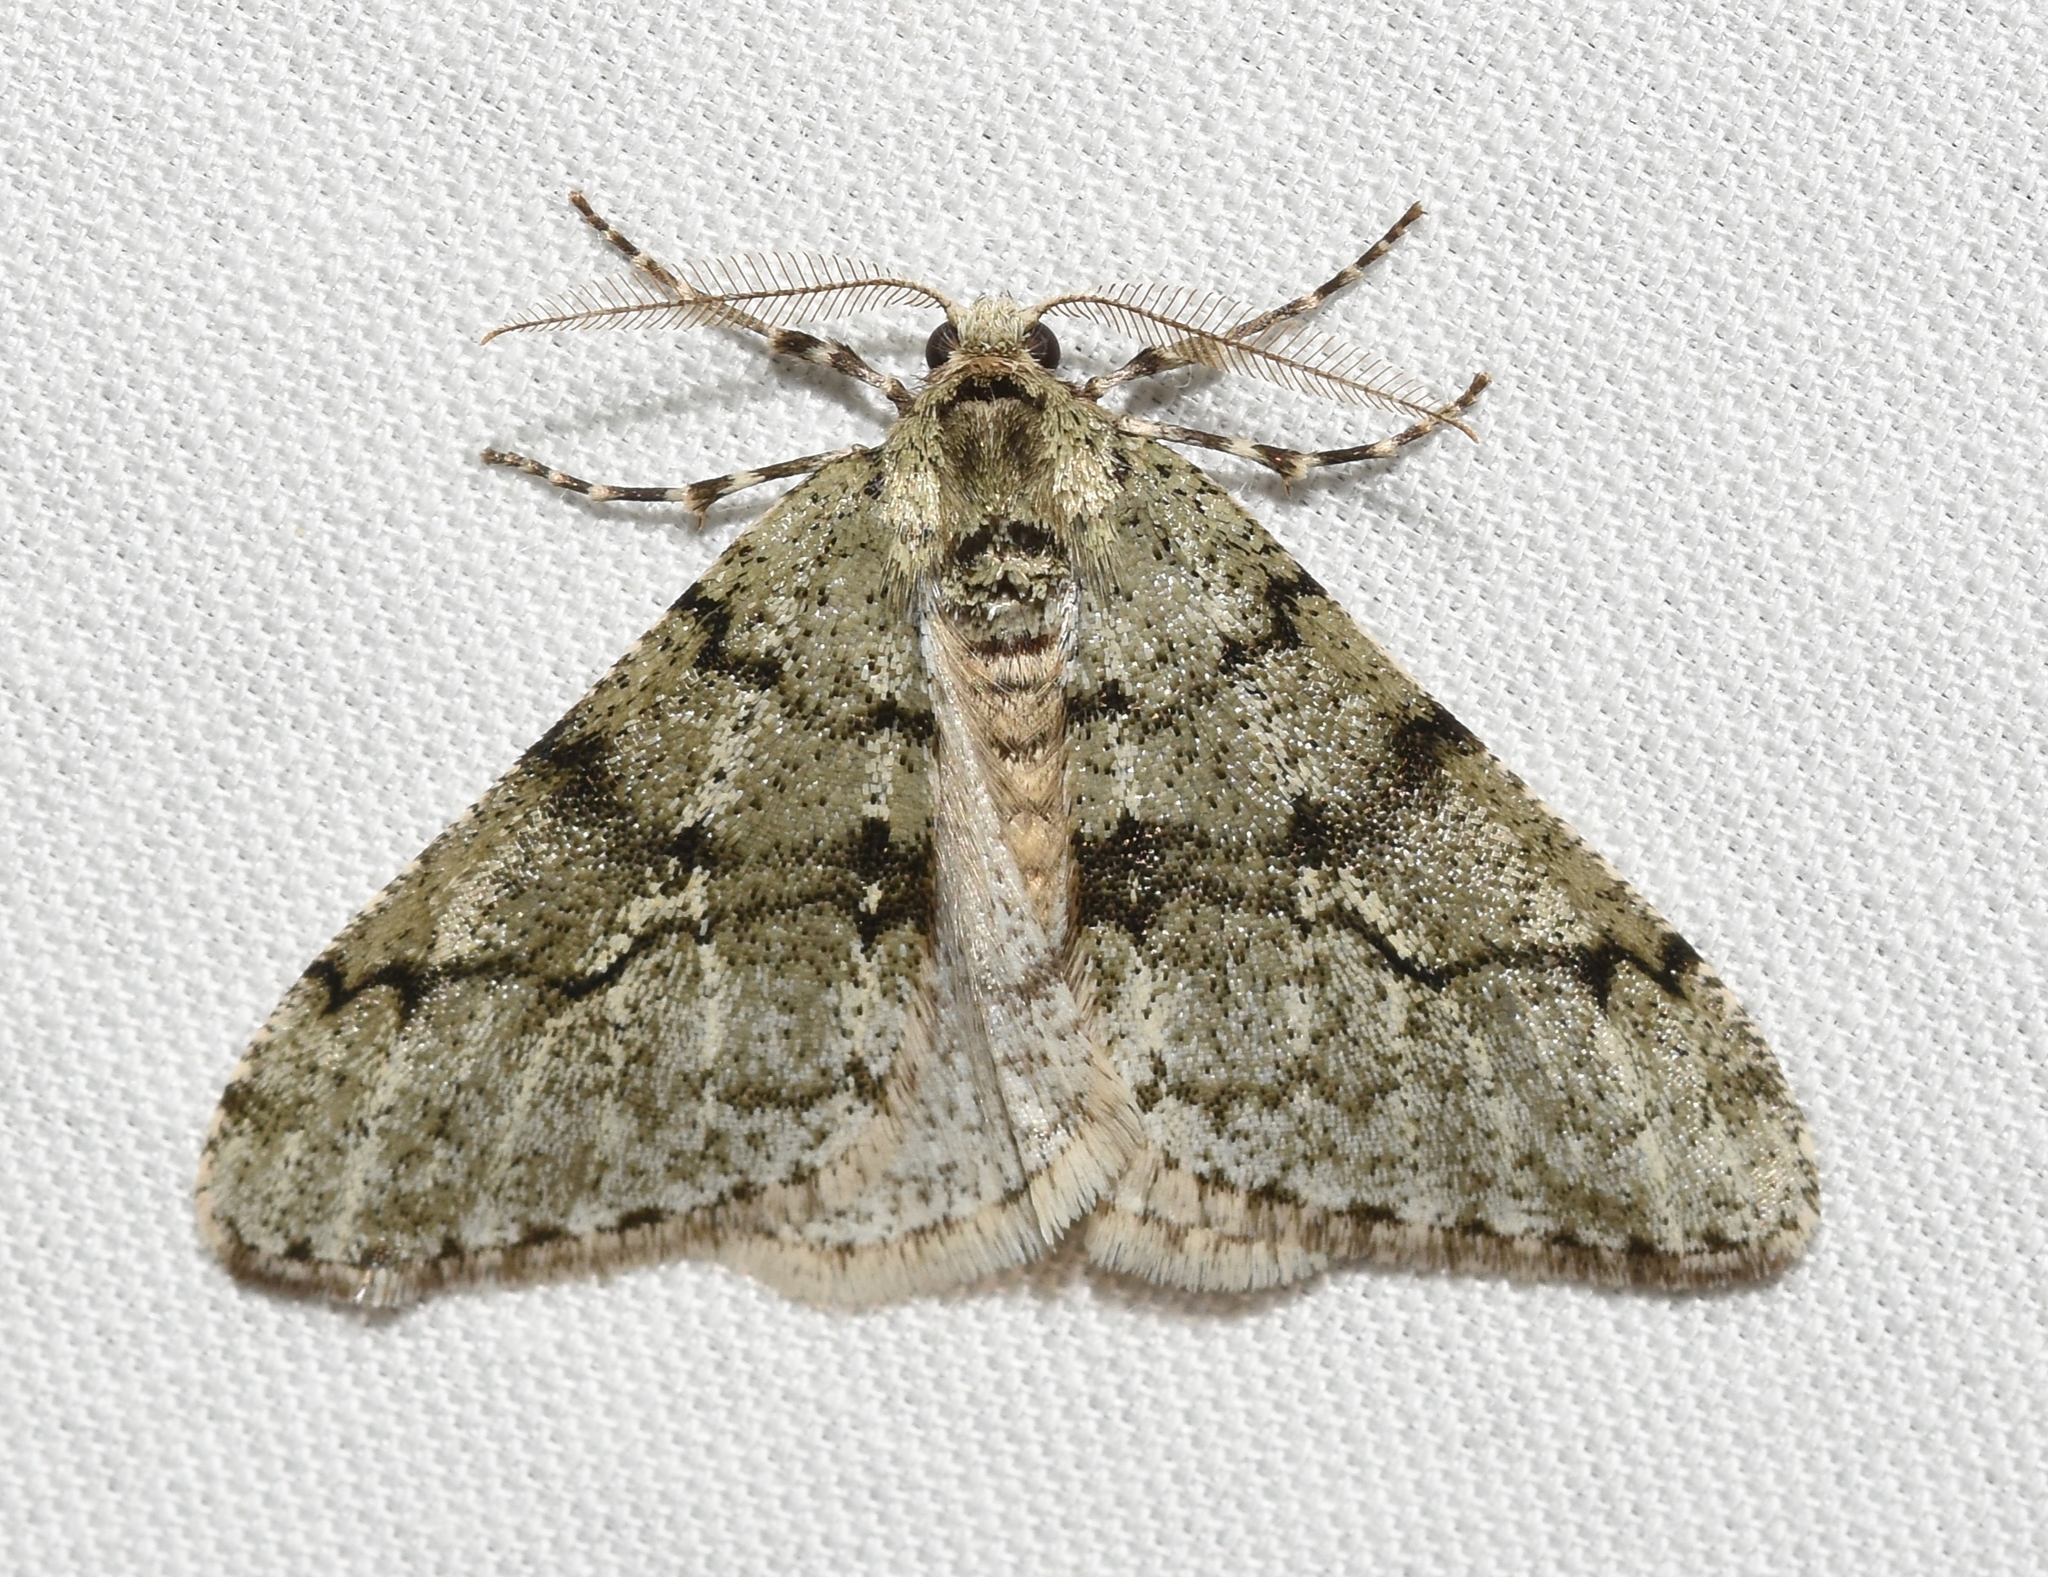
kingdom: Animalia
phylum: Arthropoda
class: Insecta
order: Lepidoptera
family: Geometridae
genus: Phigalia
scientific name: Phigalia strigataria
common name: Small phigalia
